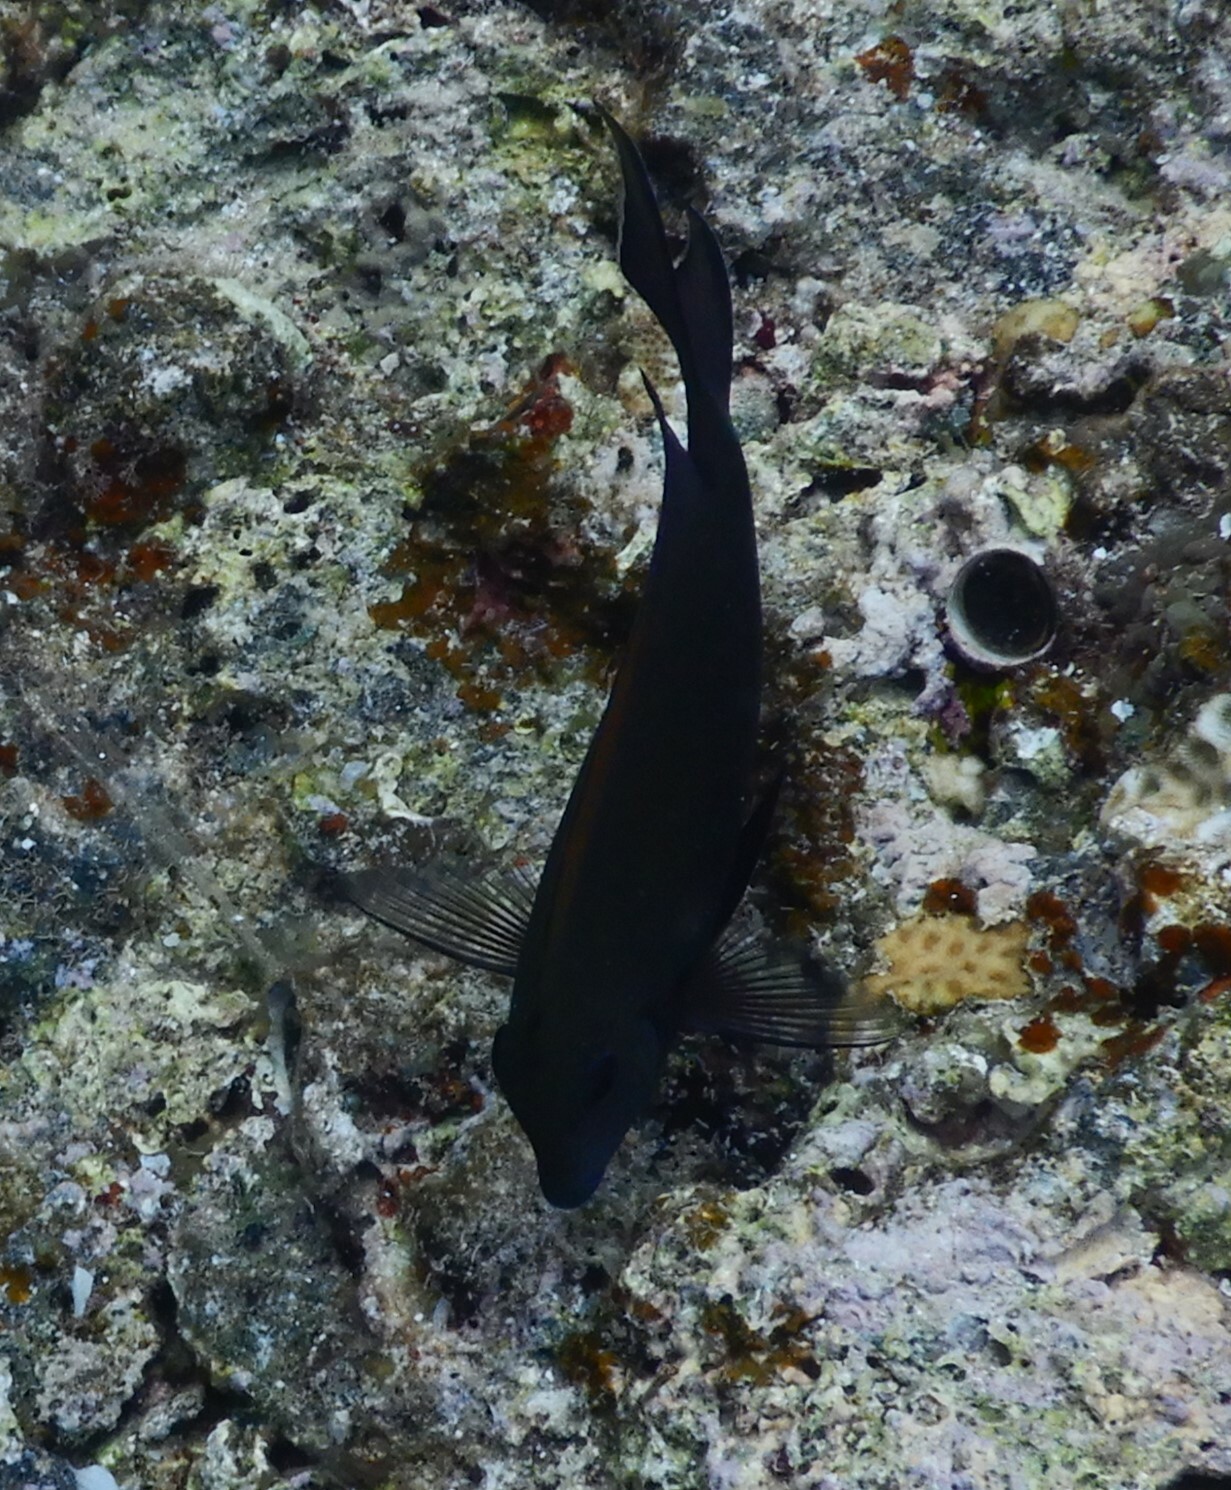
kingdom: Animalia
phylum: Chordata
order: Perciformes
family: Acanthuridae
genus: Ctenochaetus
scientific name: Ctenochaetus striatus
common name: Bristle-toothed surgeonfish
